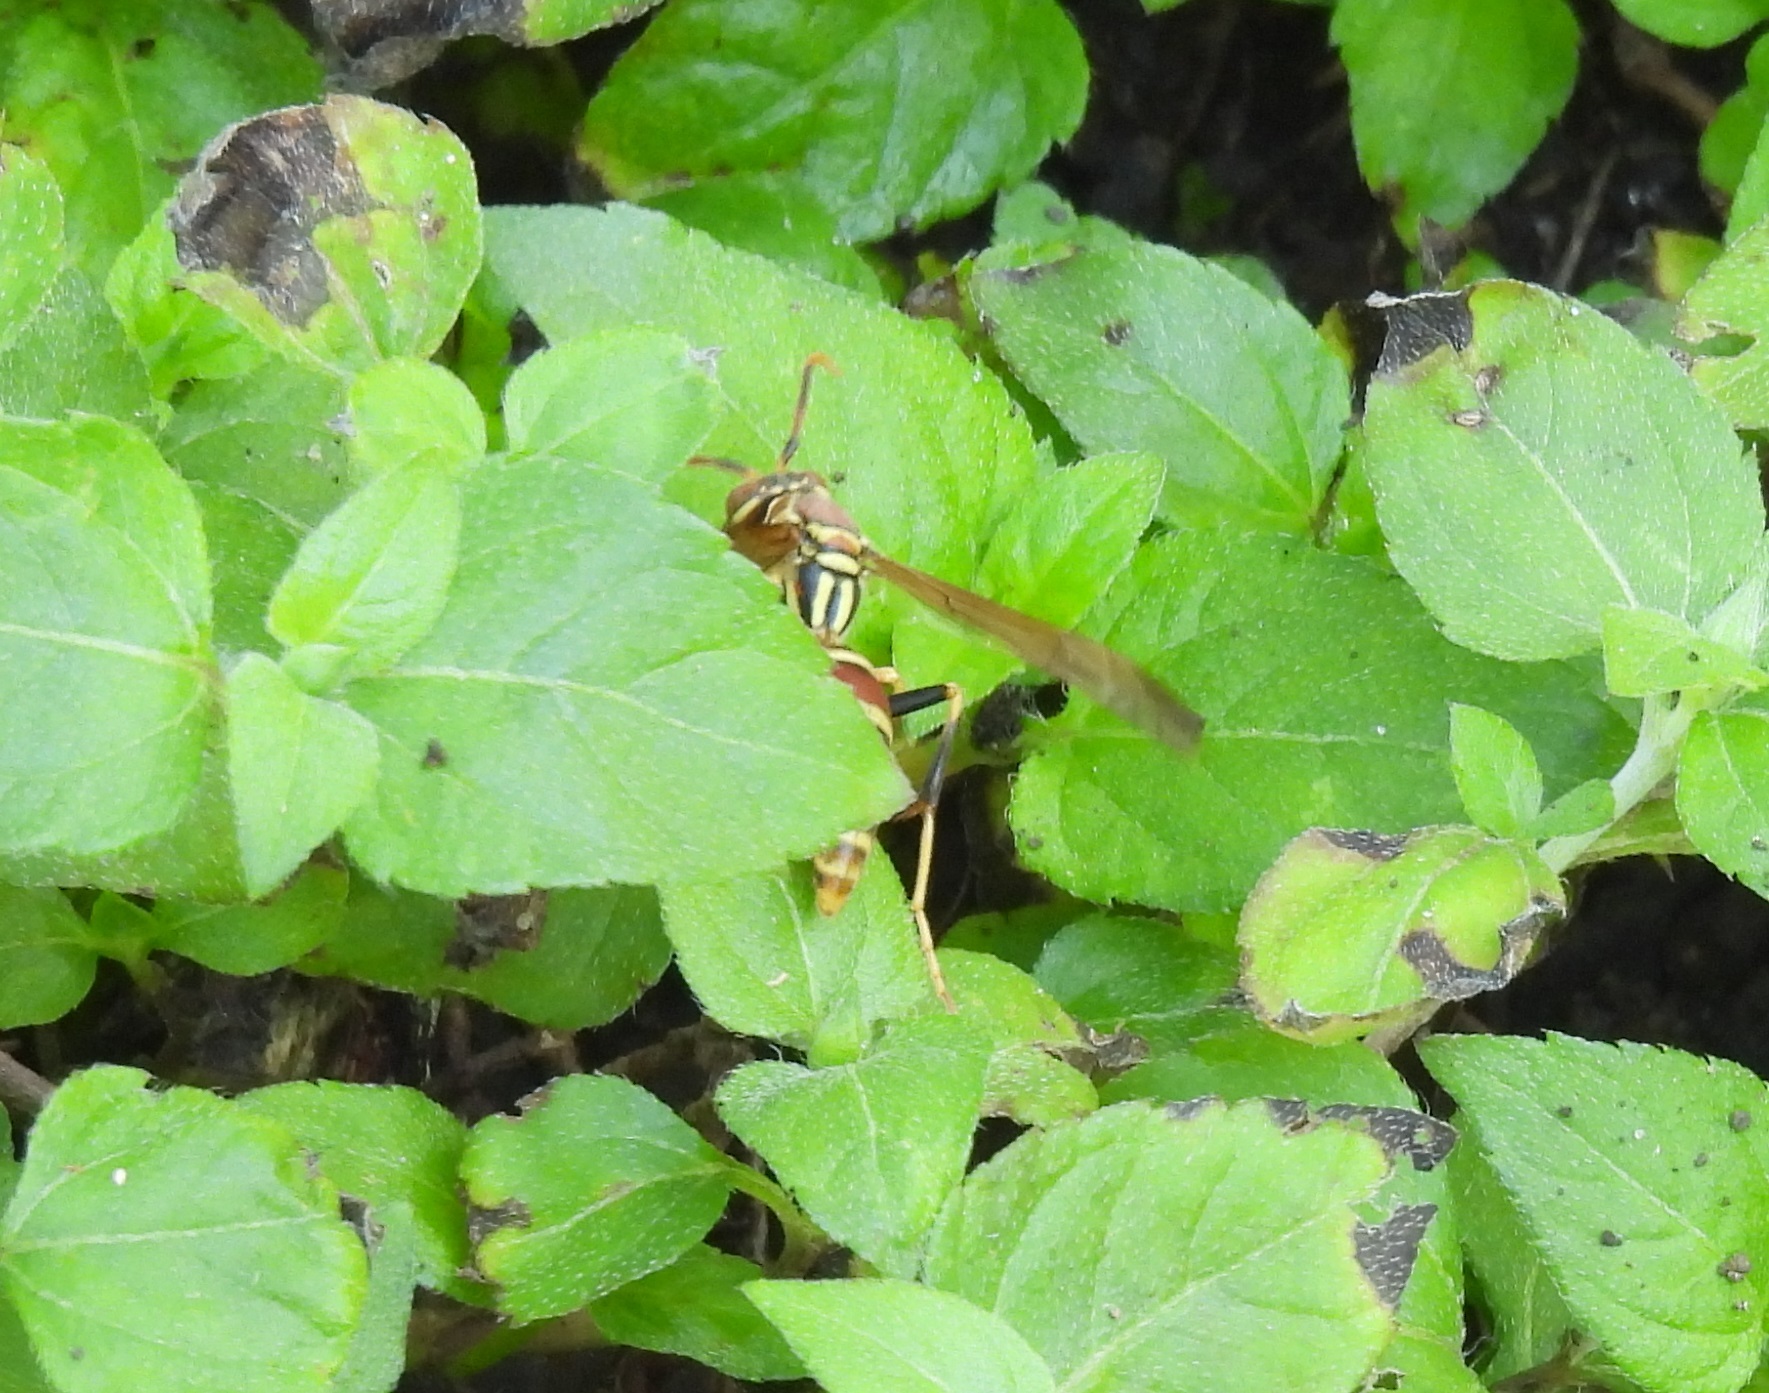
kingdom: Animalia
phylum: Arthropoda
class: Insecta
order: Hymenoptera
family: Eumenidae
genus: Polistes
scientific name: Polistes exclamans
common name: Paper wasp
